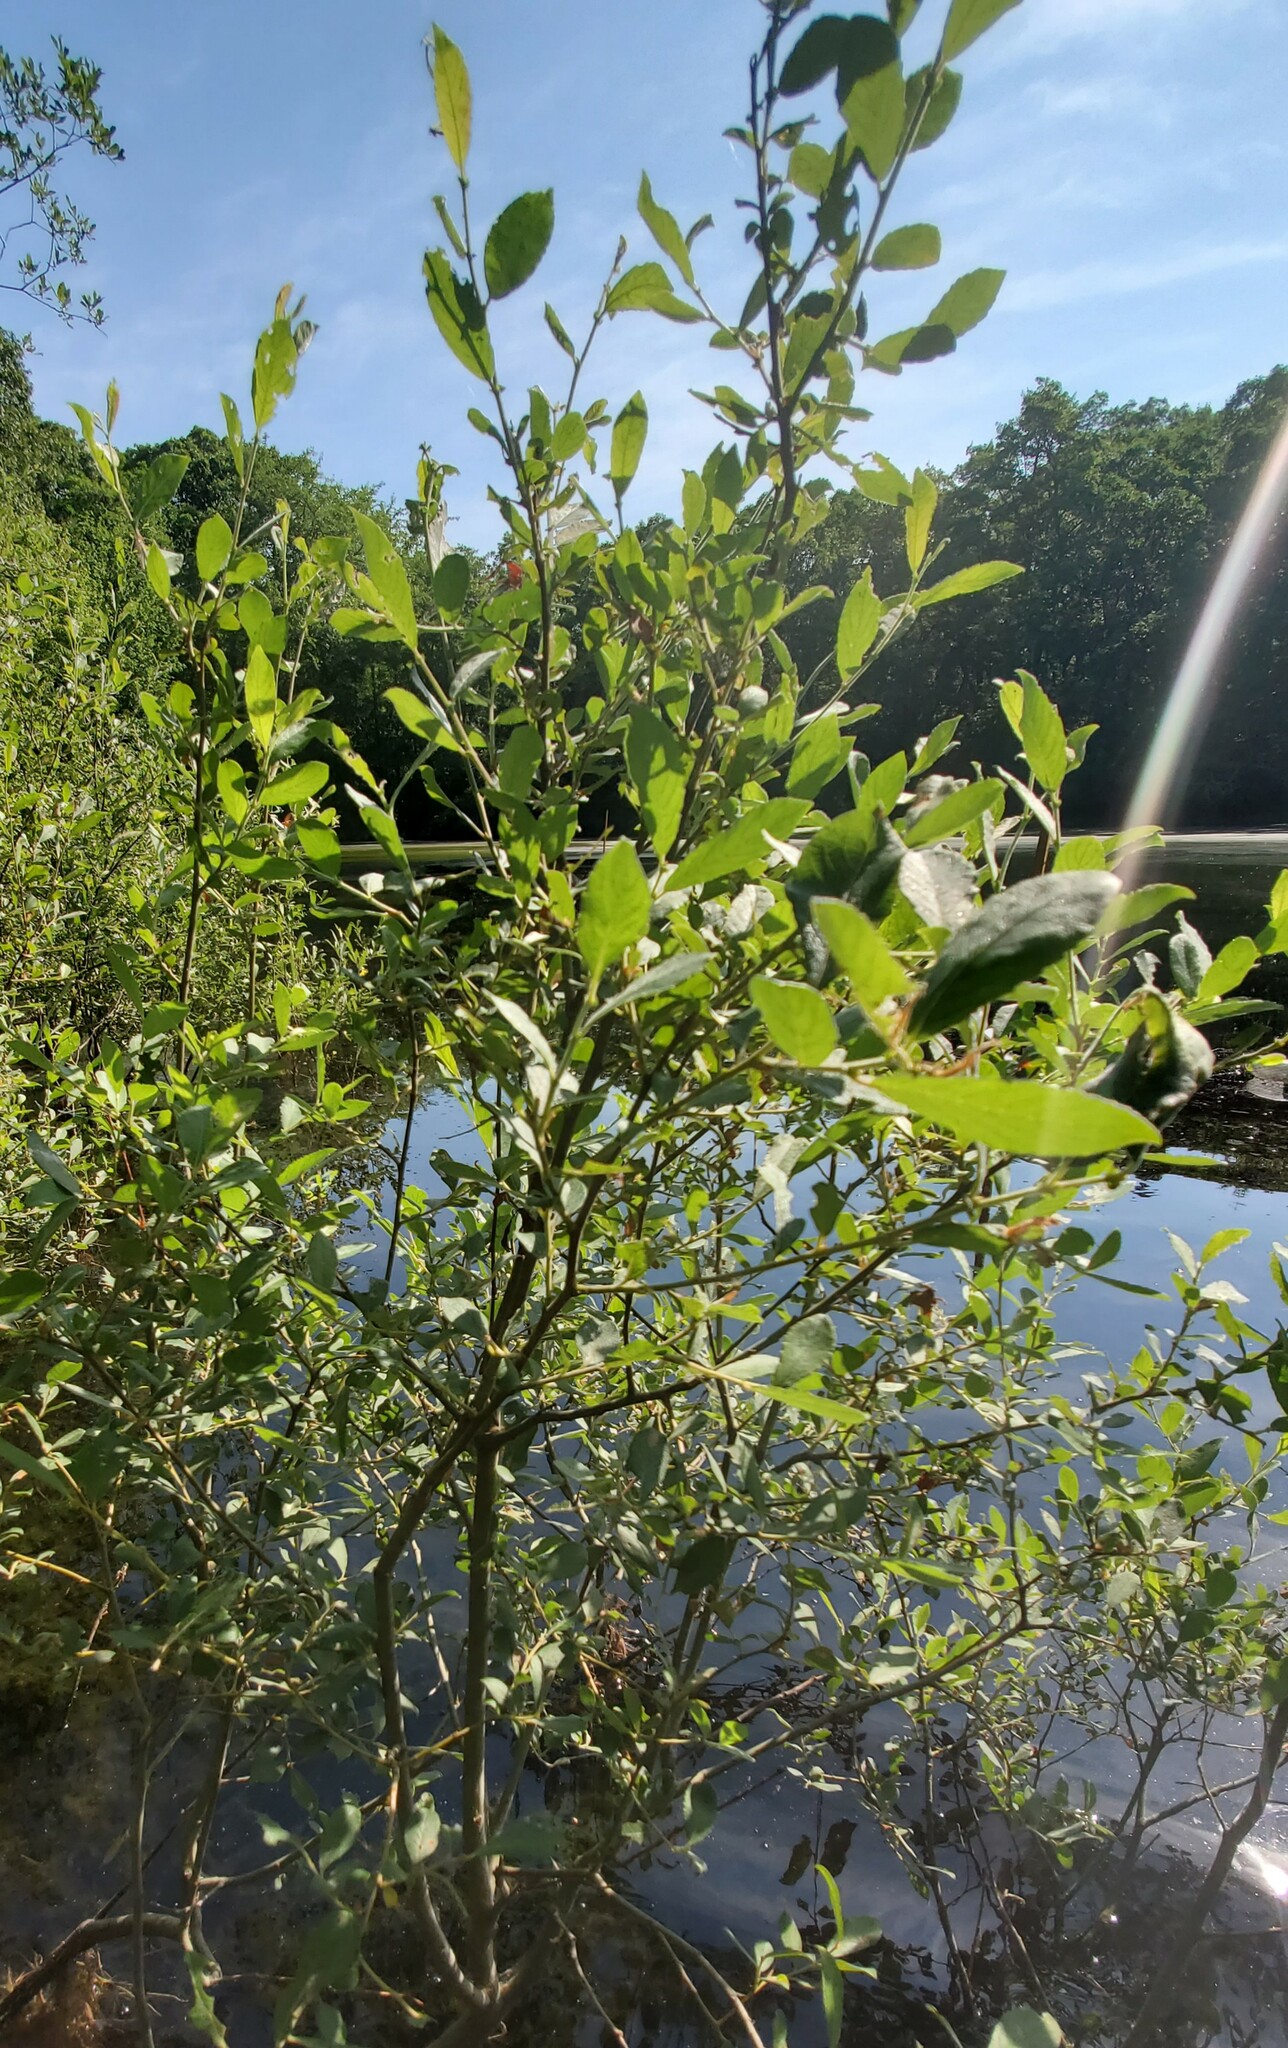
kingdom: Plantae
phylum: Tracheophyta
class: Magnoliopsida
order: Malpighiales
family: Salicaceae
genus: Salix
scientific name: Salix cinerea
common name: Common sallow
